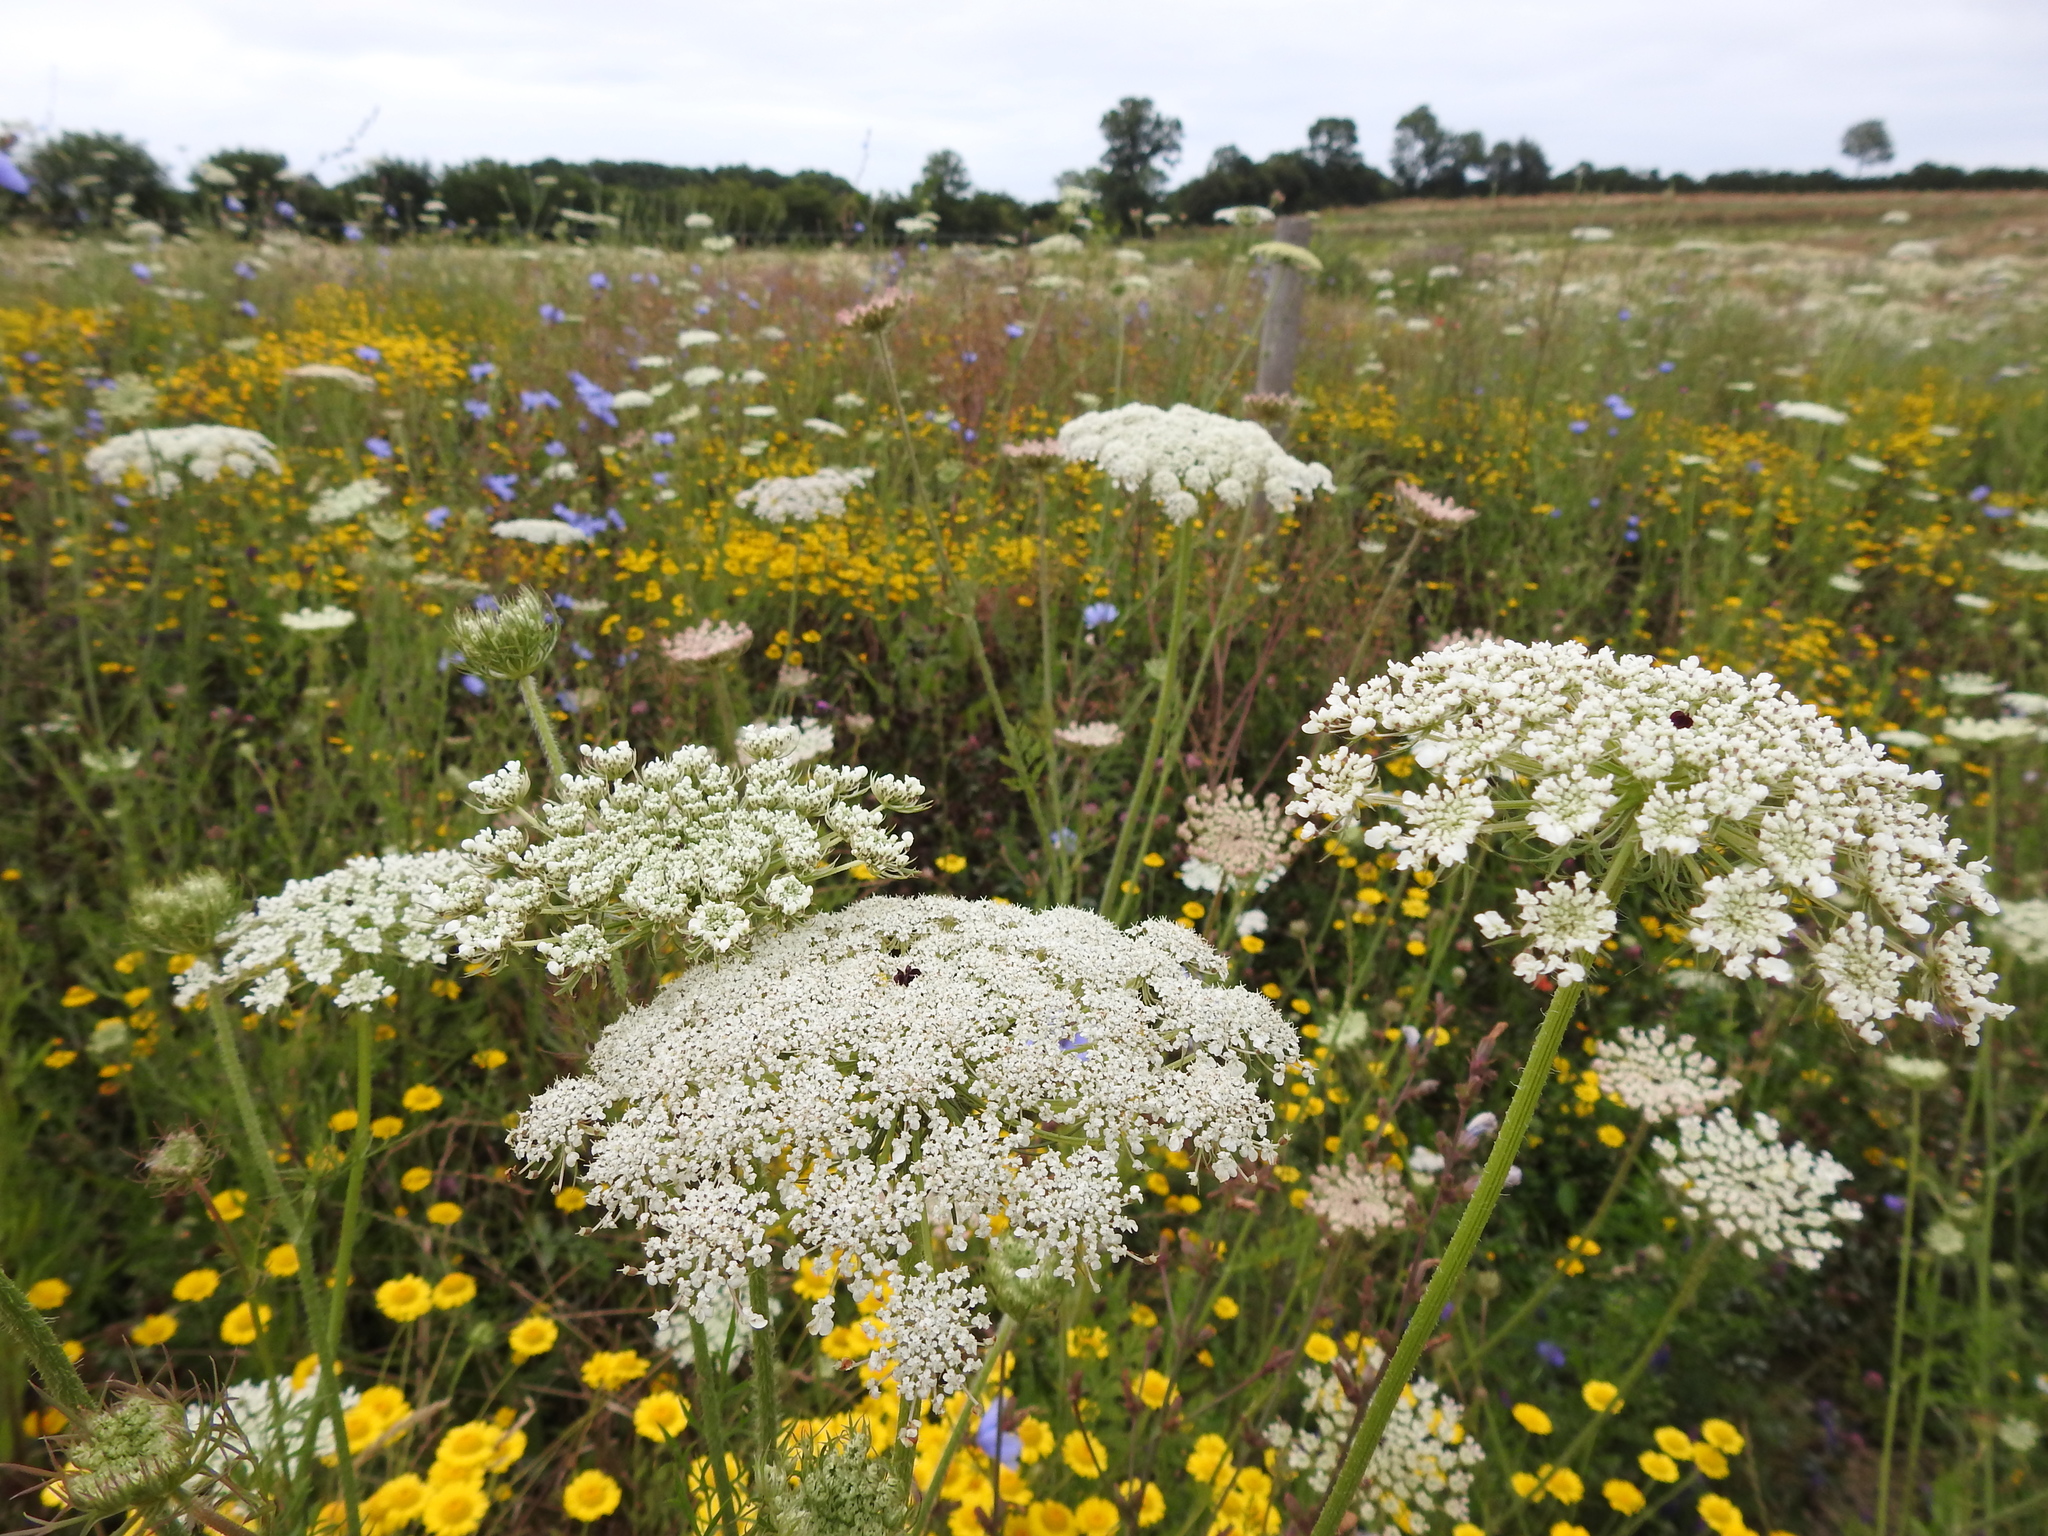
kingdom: Plantae
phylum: Tracheophyta
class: Magnoliopsida
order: Apiales
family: Apiaceae
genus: Daucus
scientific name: Daucus carota
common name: Wild carrot
